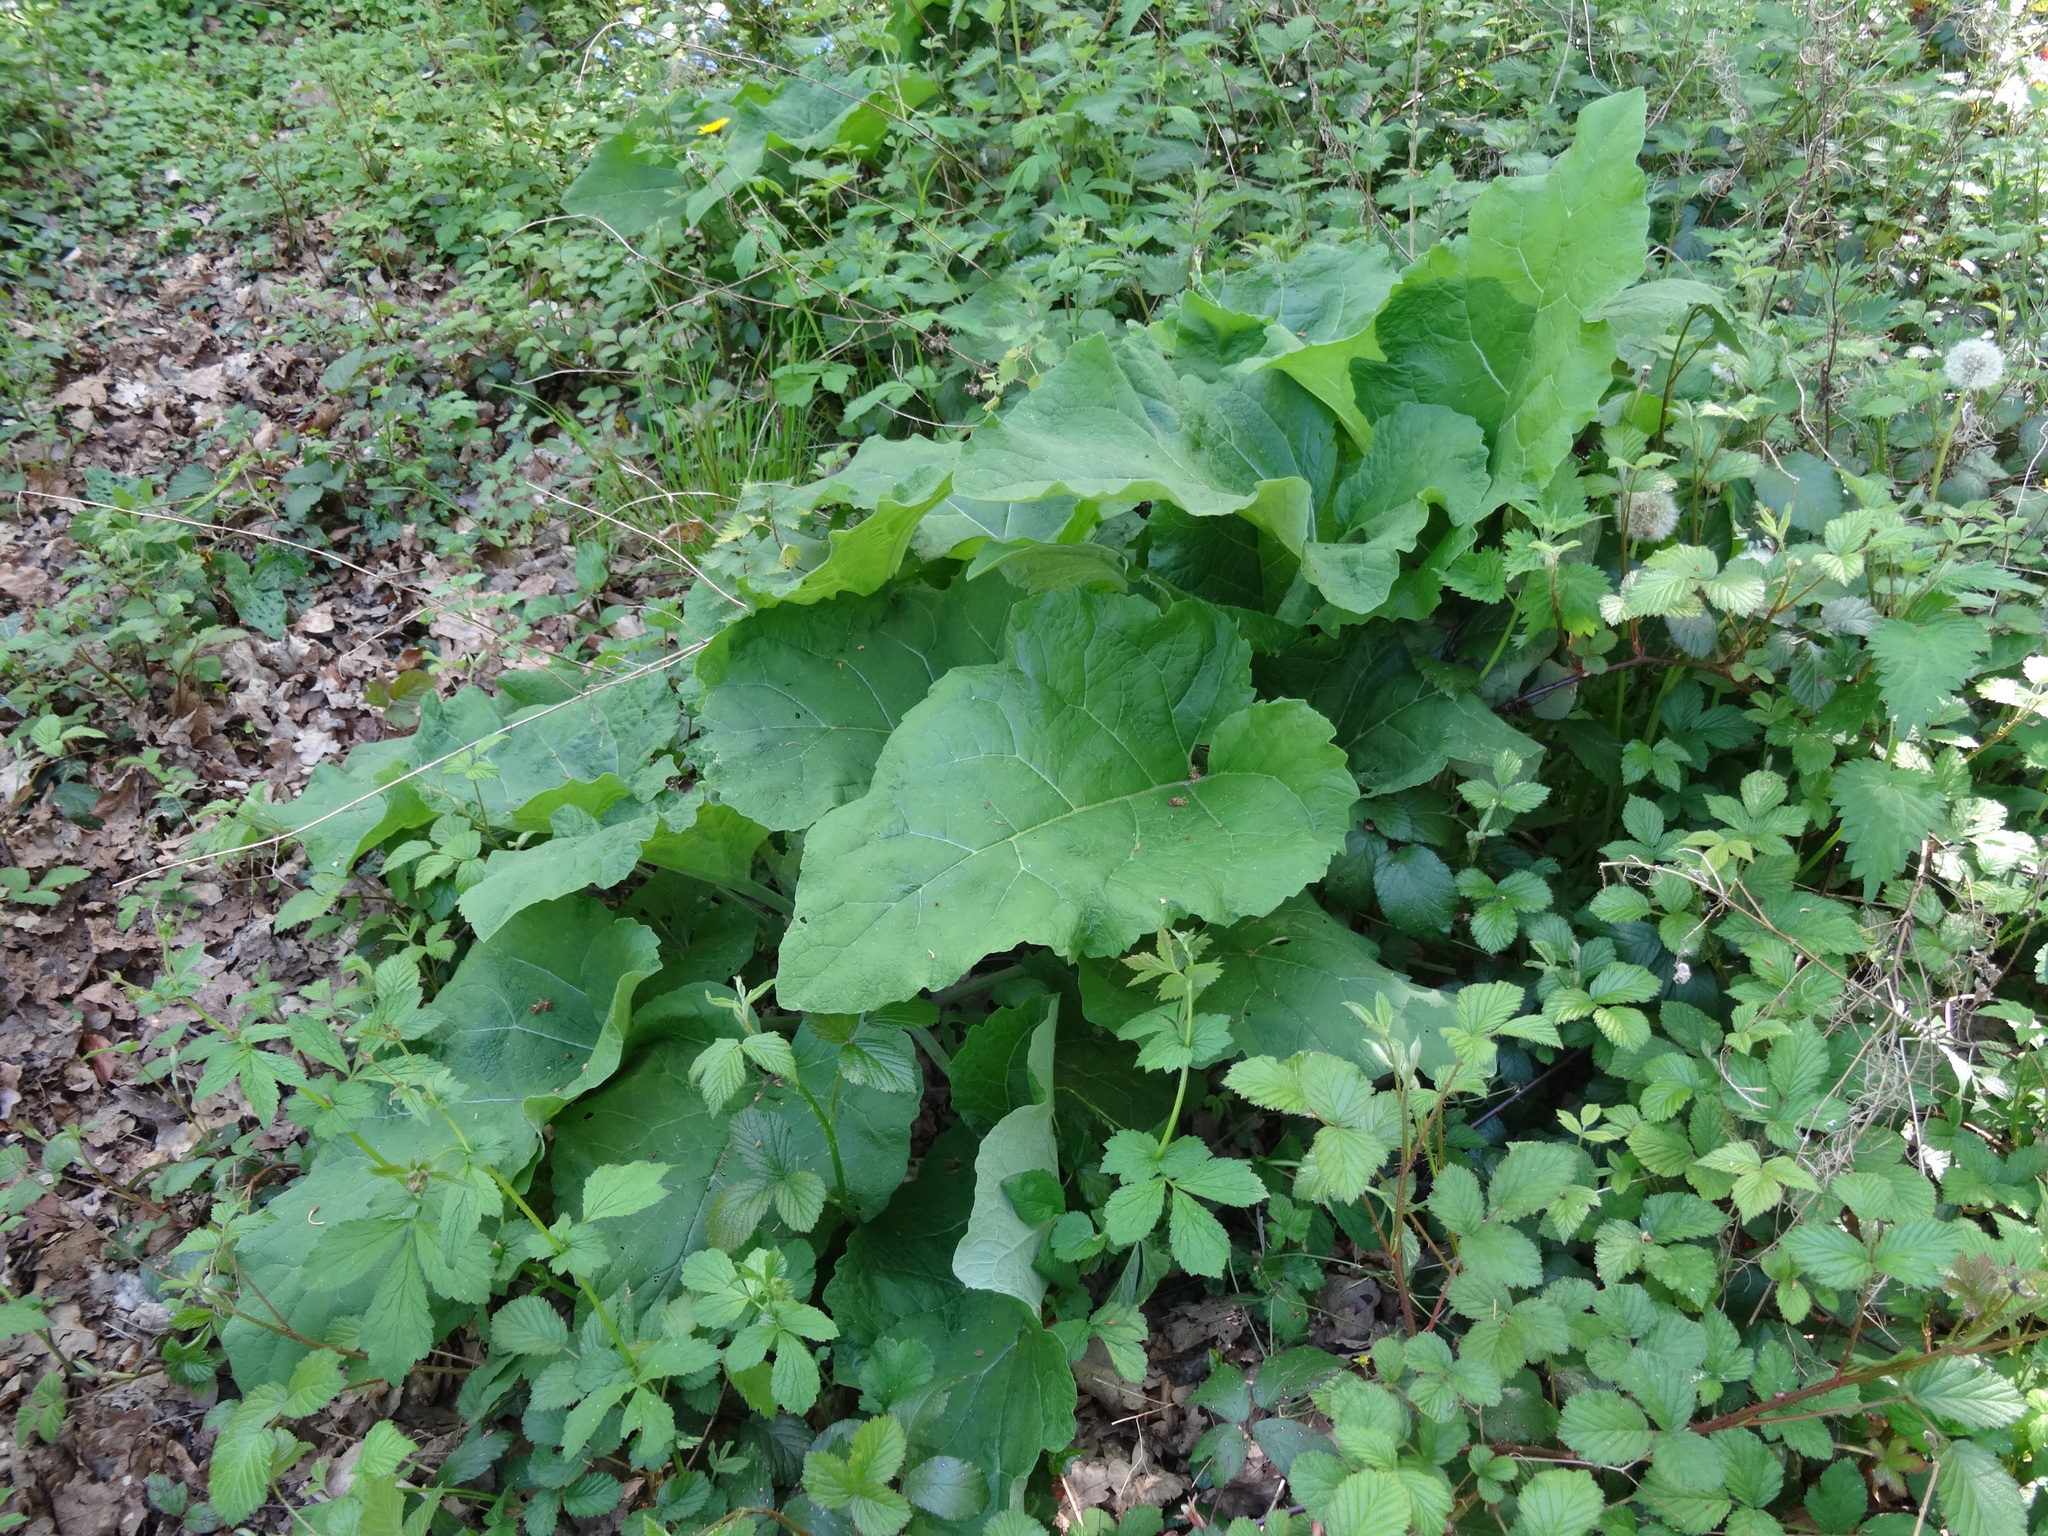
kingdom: Plantae
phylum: Tracheophyta
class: Magnoliopsida
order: Asterales
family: Asteraceae
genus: Arctium
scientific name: Arctium lappa
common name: Greater burdock
